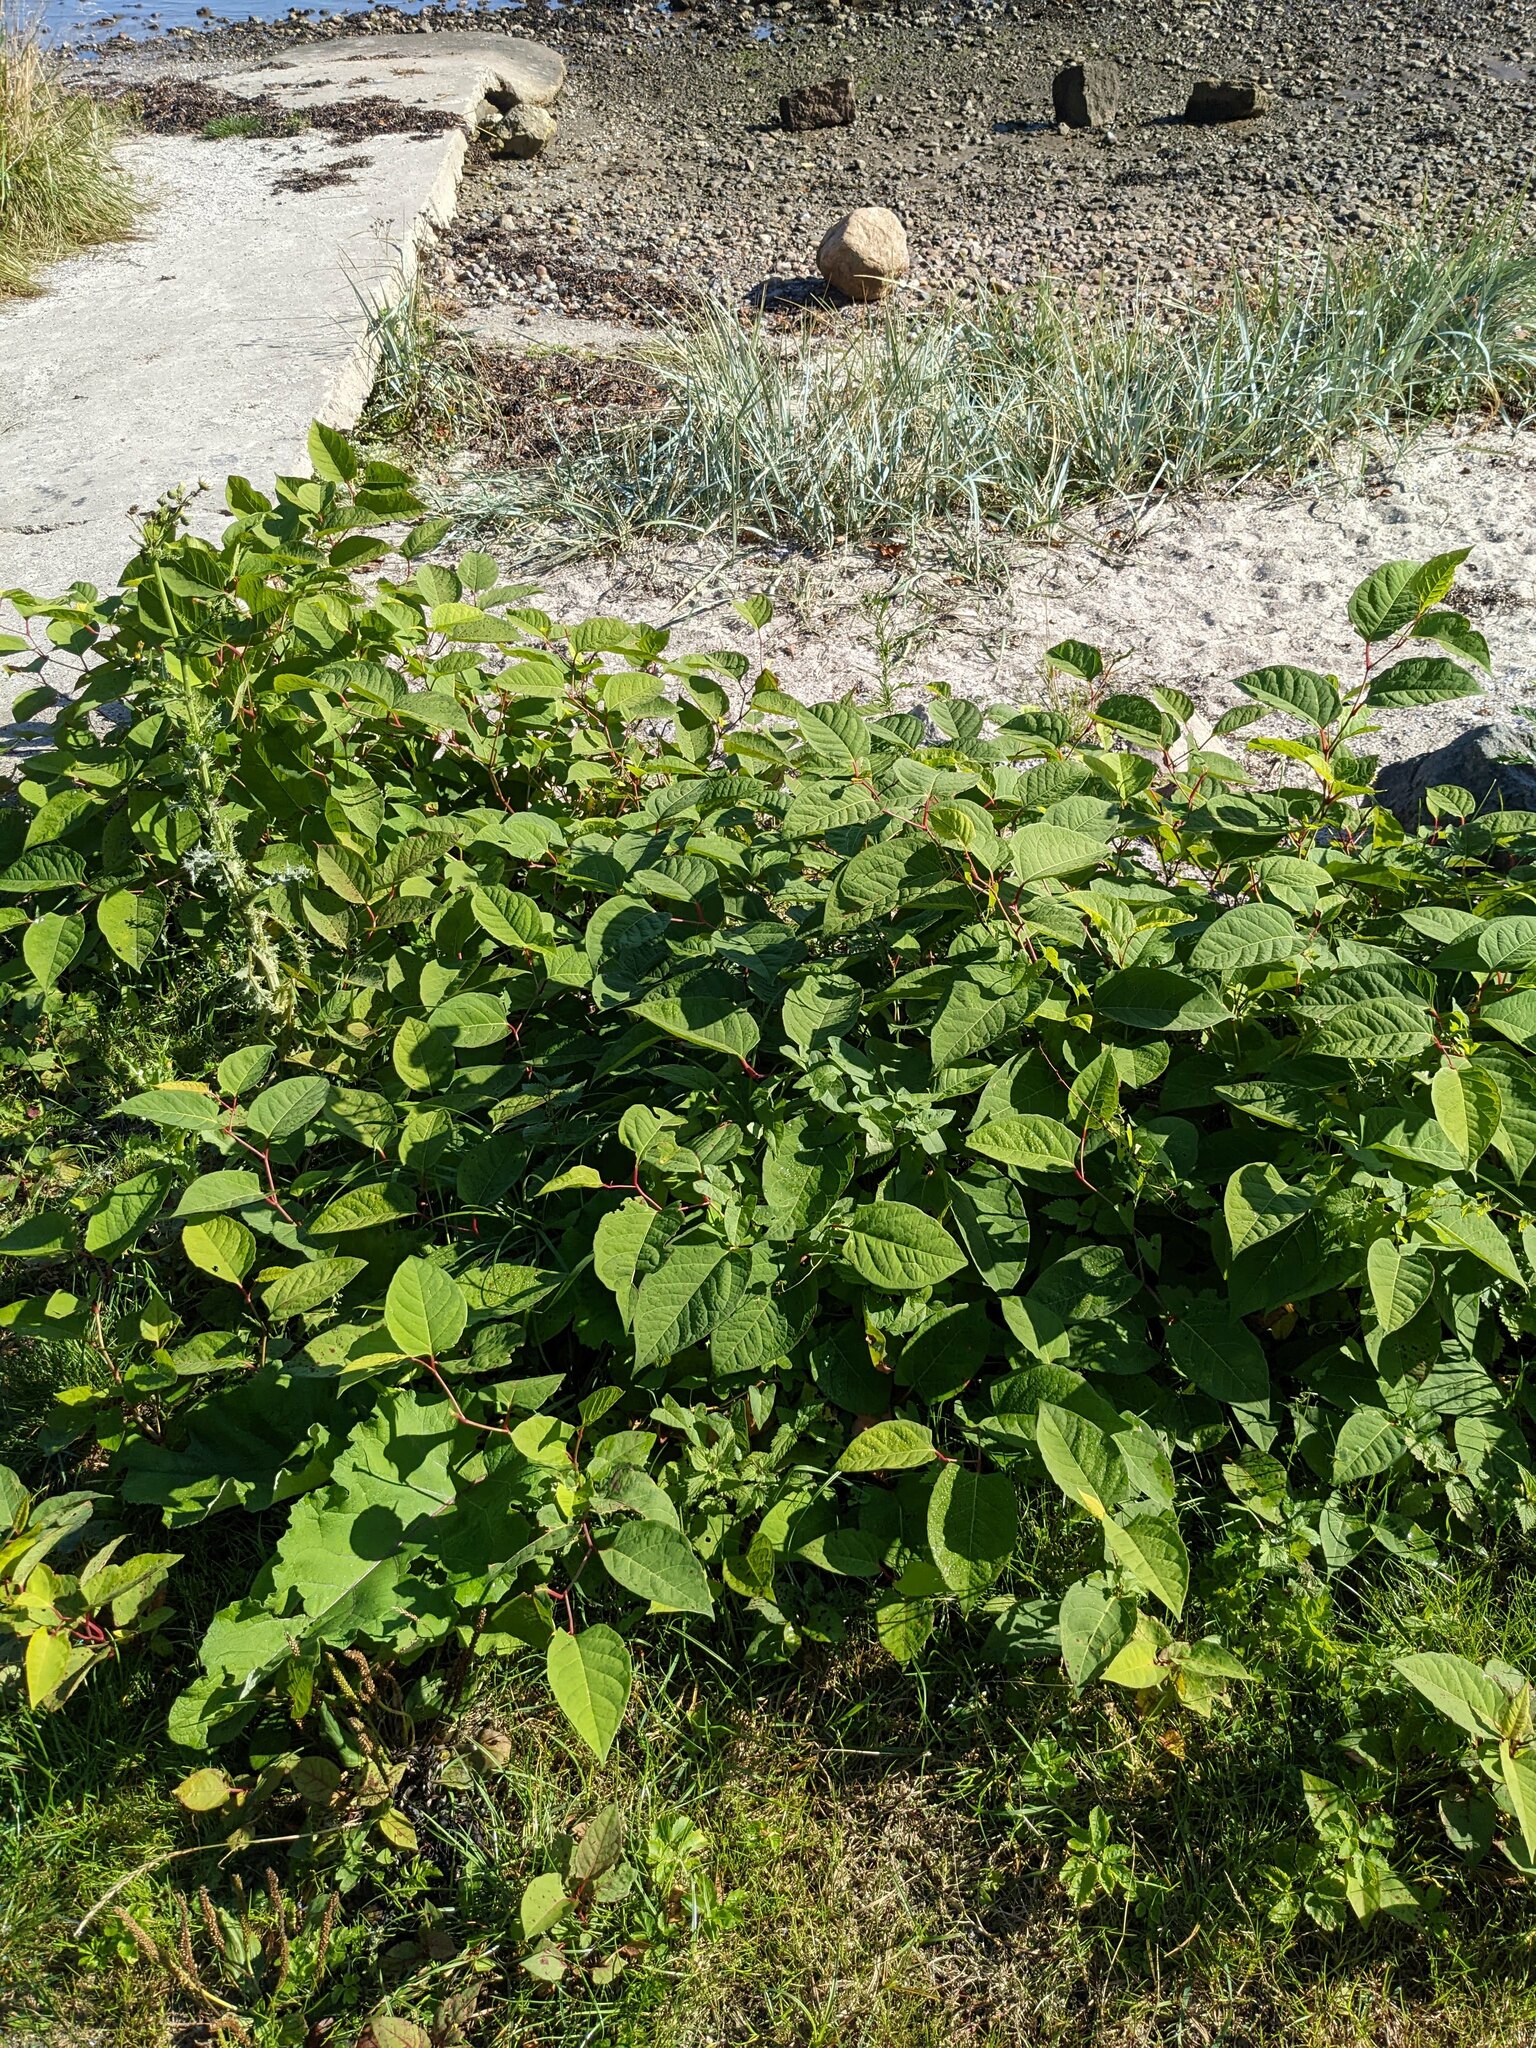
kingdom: Plantae
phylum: Tracheophyta
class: Magnoliopsida
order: Caryophyllales
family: Polygonaceae
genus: Reynoutria
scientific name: Reynoutria japonica
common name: Japanese knotweed
